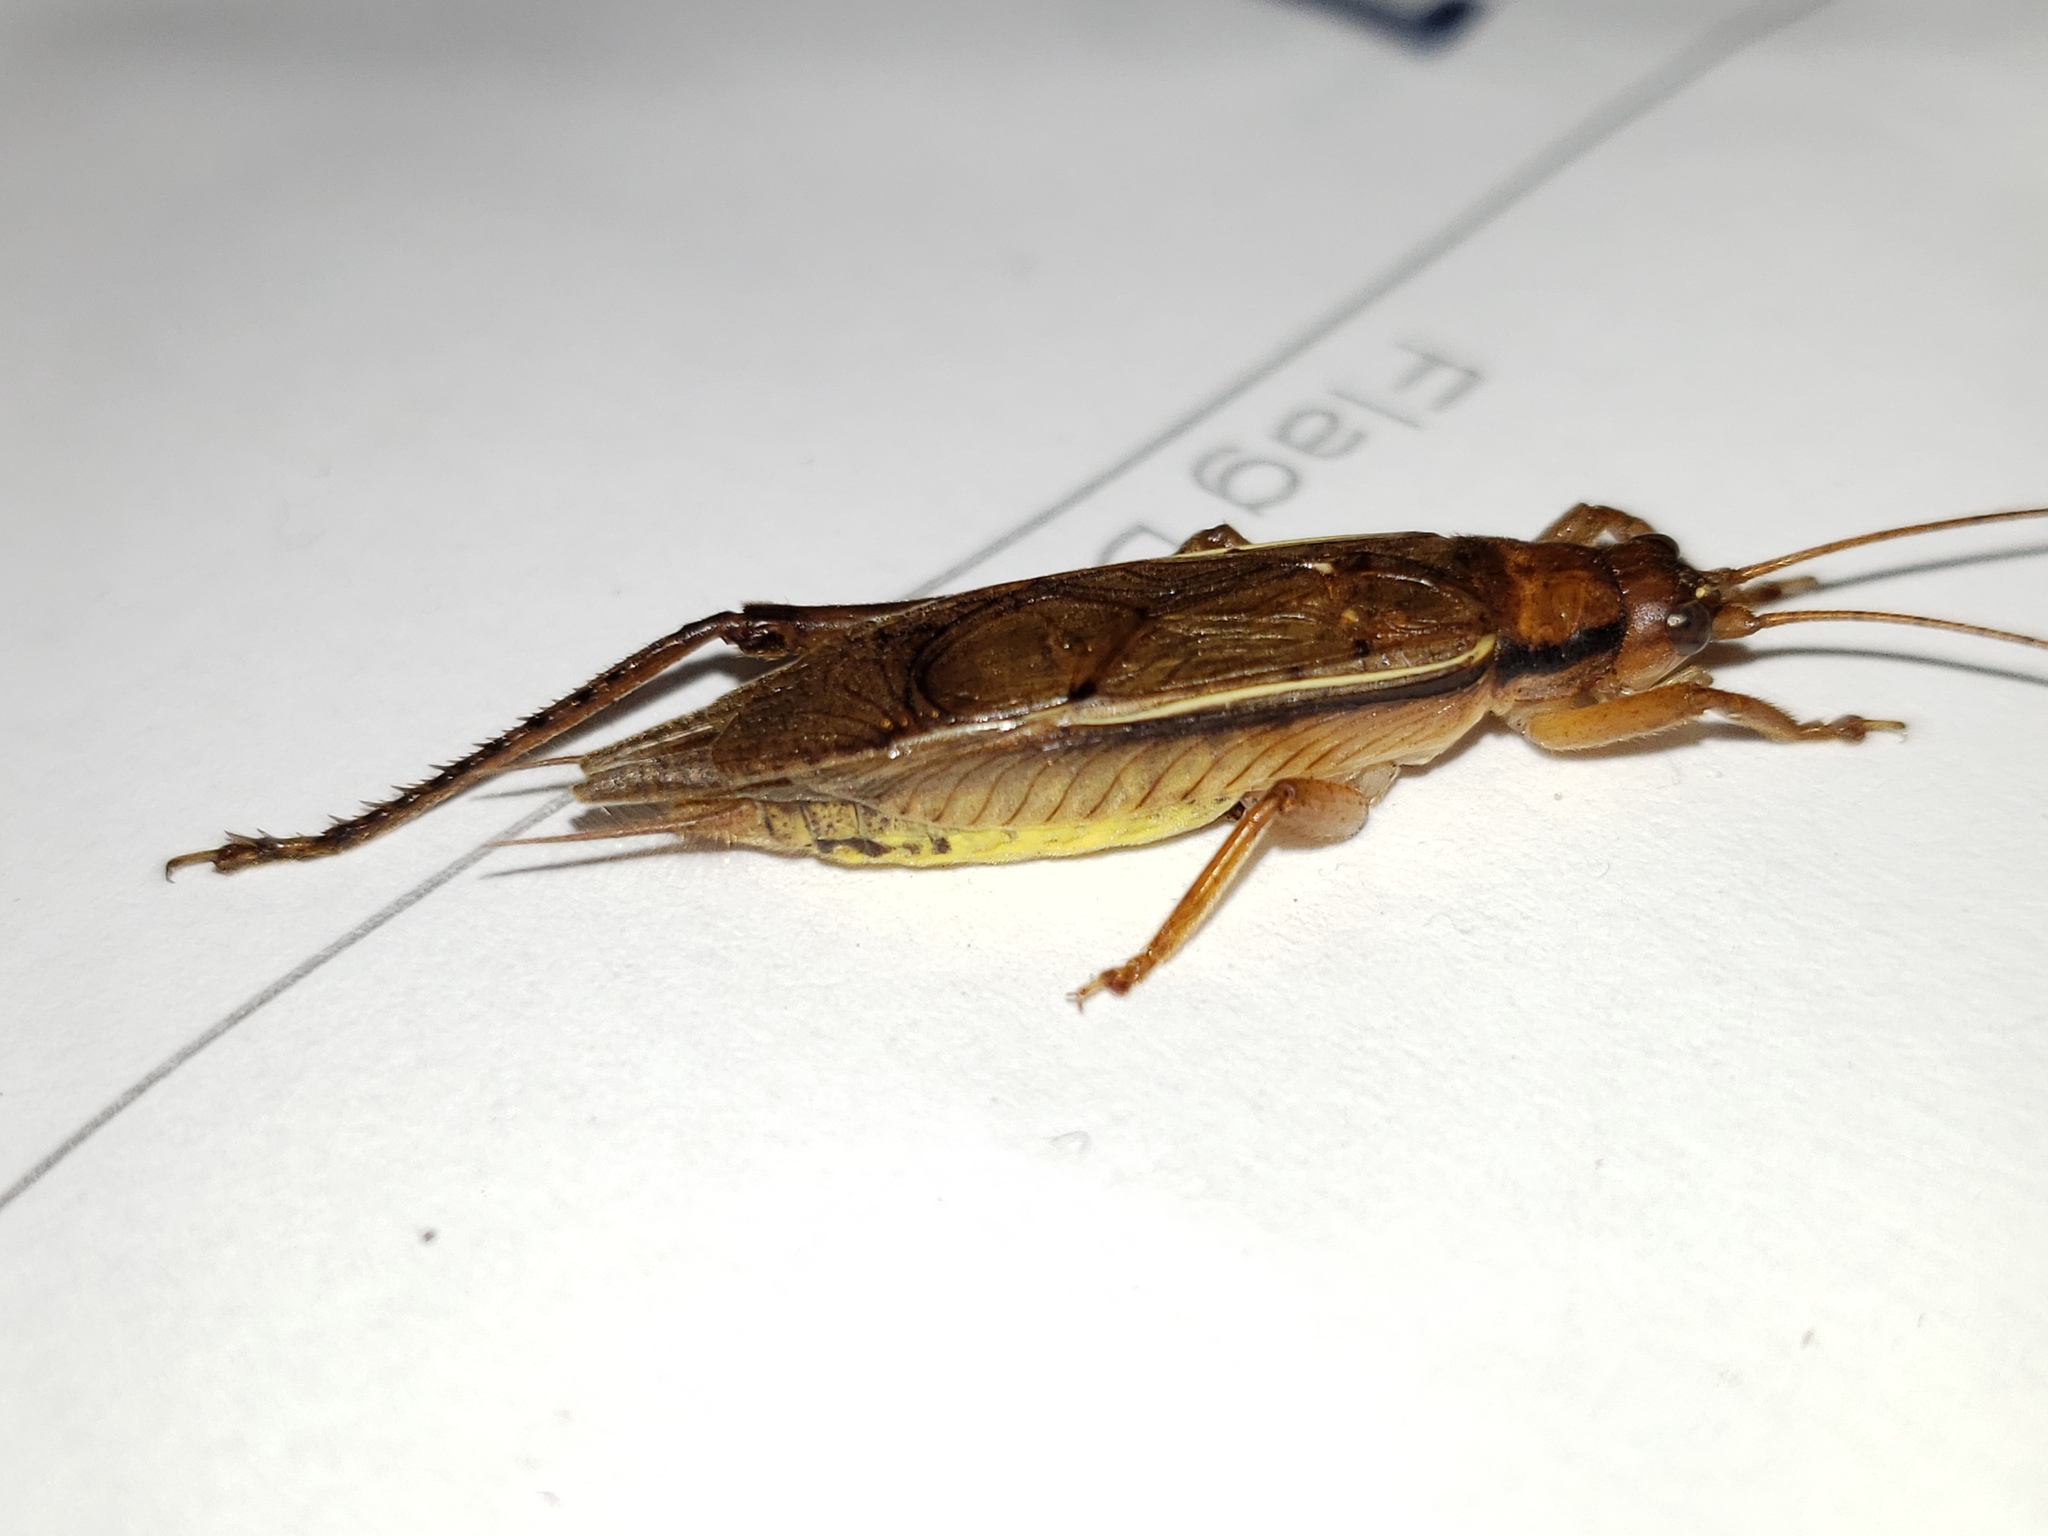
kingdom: Animalia
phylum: Arthropoda
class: Insecta
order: Orthoptera
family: Gryllidae
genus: Hapithus
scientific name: Hapithus oriobates
